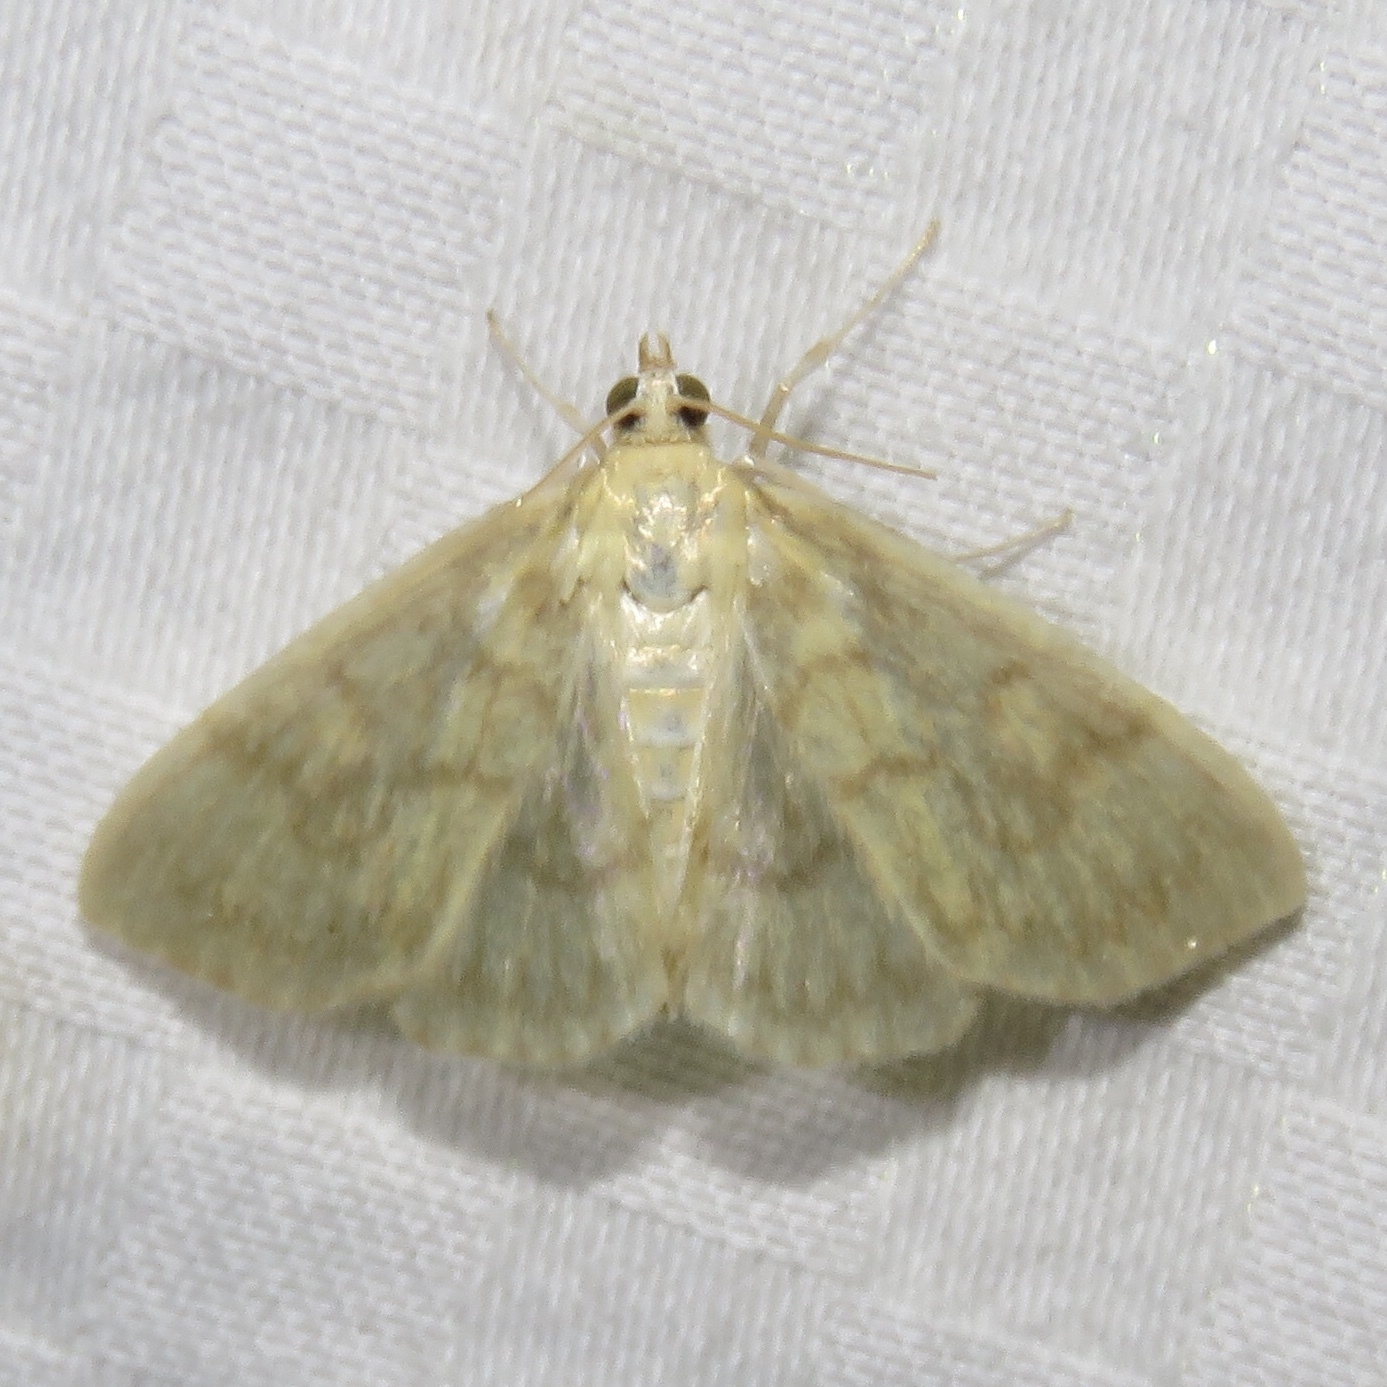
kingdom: Animalia
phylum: Arthropoda
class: Insecta
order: Lepidoptera
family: Crambidae
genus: Crocidophora
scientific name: Crocidophora serratissimalis
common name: Saw-toothed crocidophora moth
